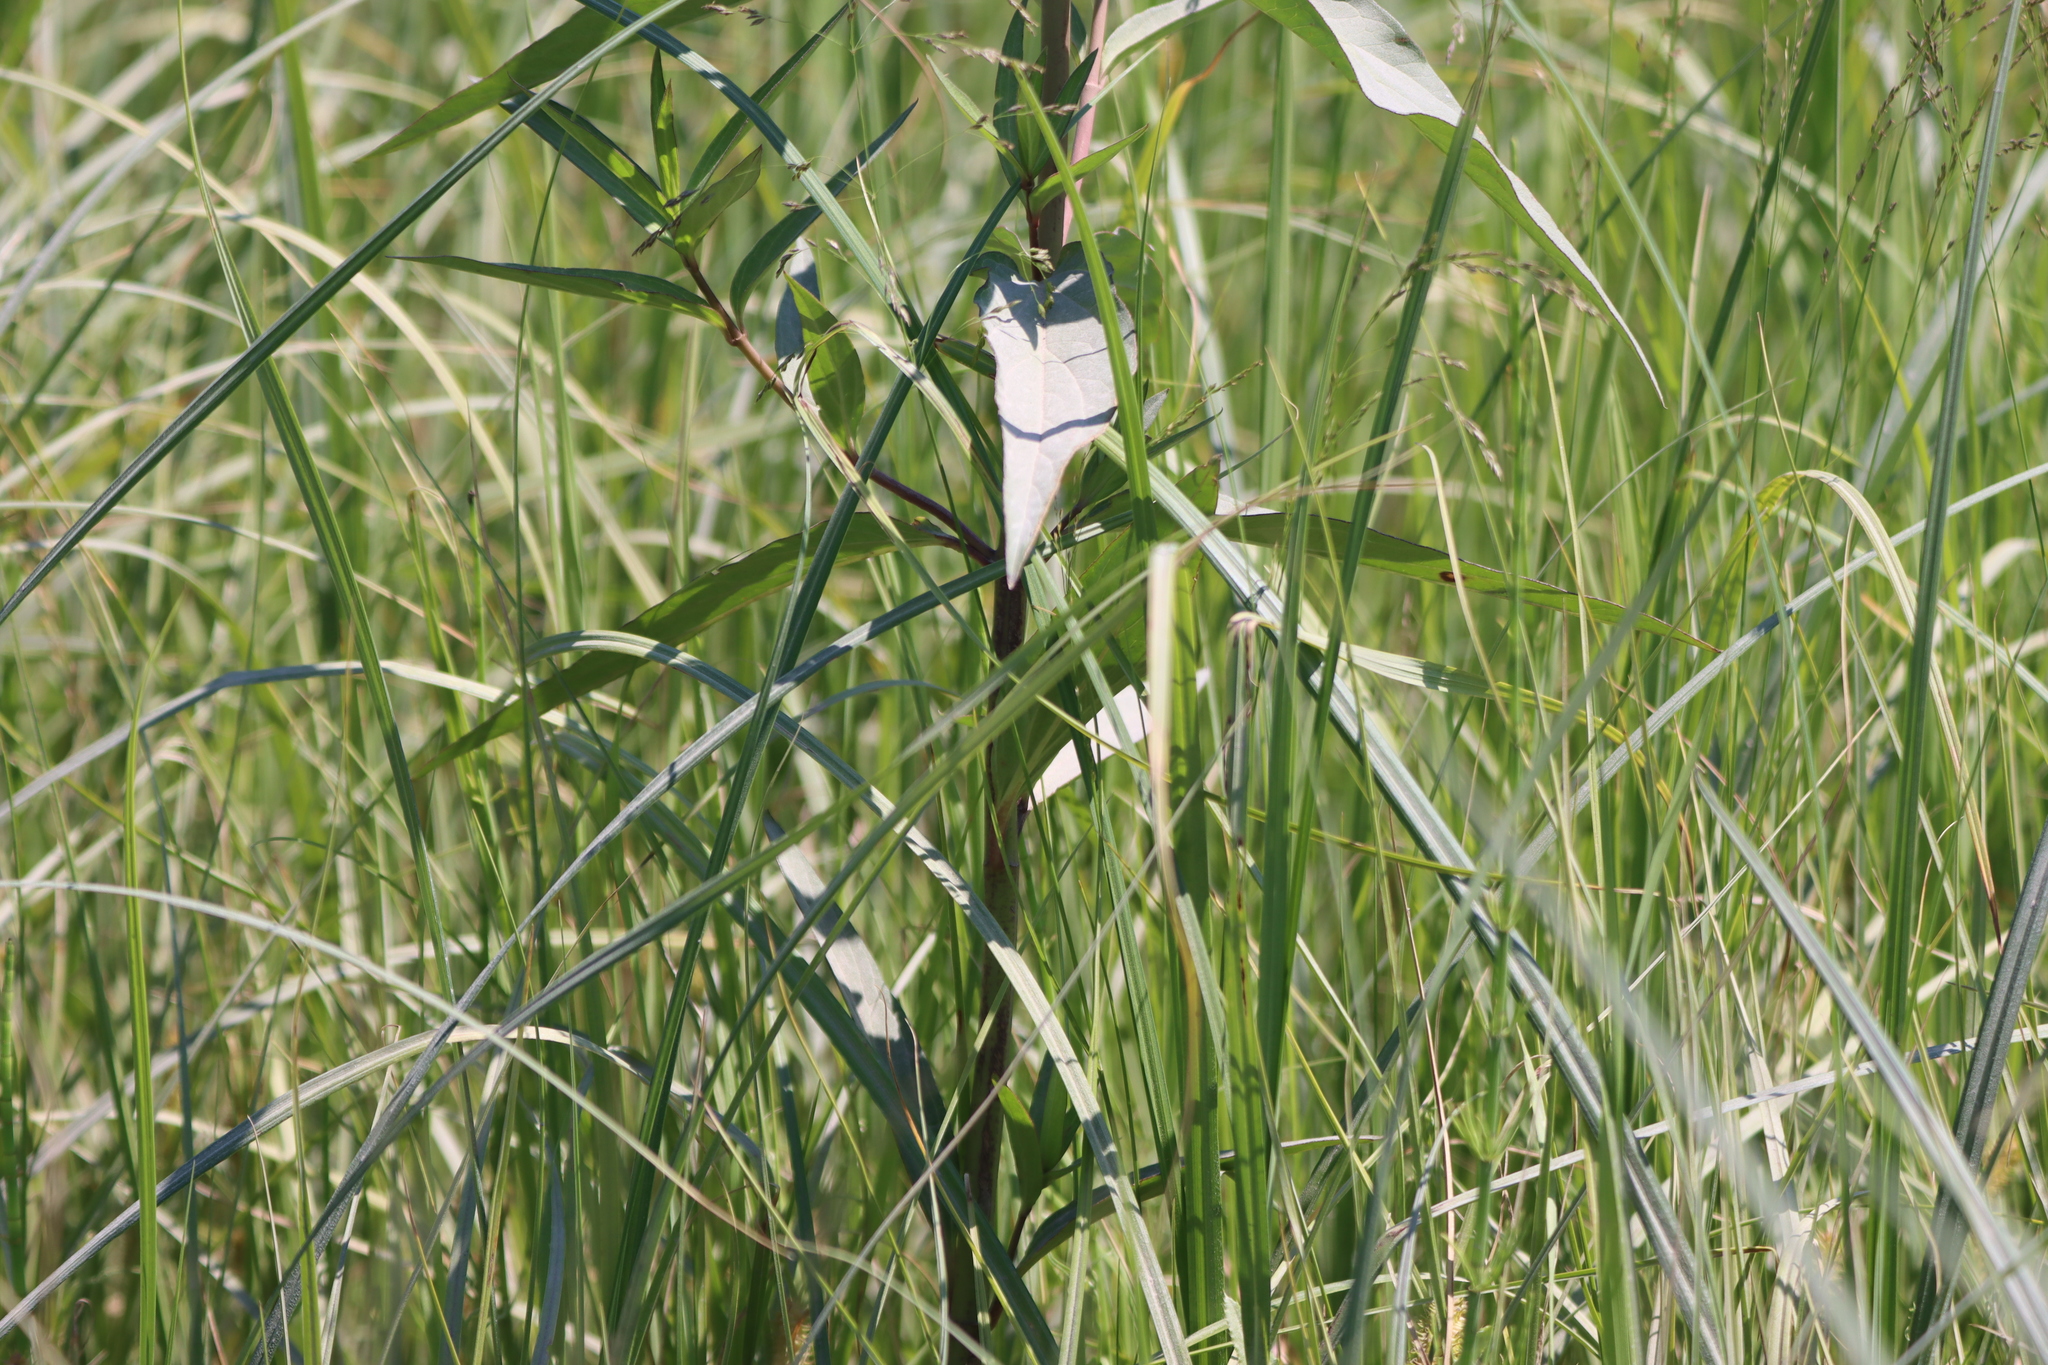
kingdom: Plantae
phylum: Tracheophyta
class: Magnoliopsida
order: Gentianales
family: Apocynaceae
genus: Asclepias
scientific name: Asclepias incarnata
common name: Swamp milkweed
